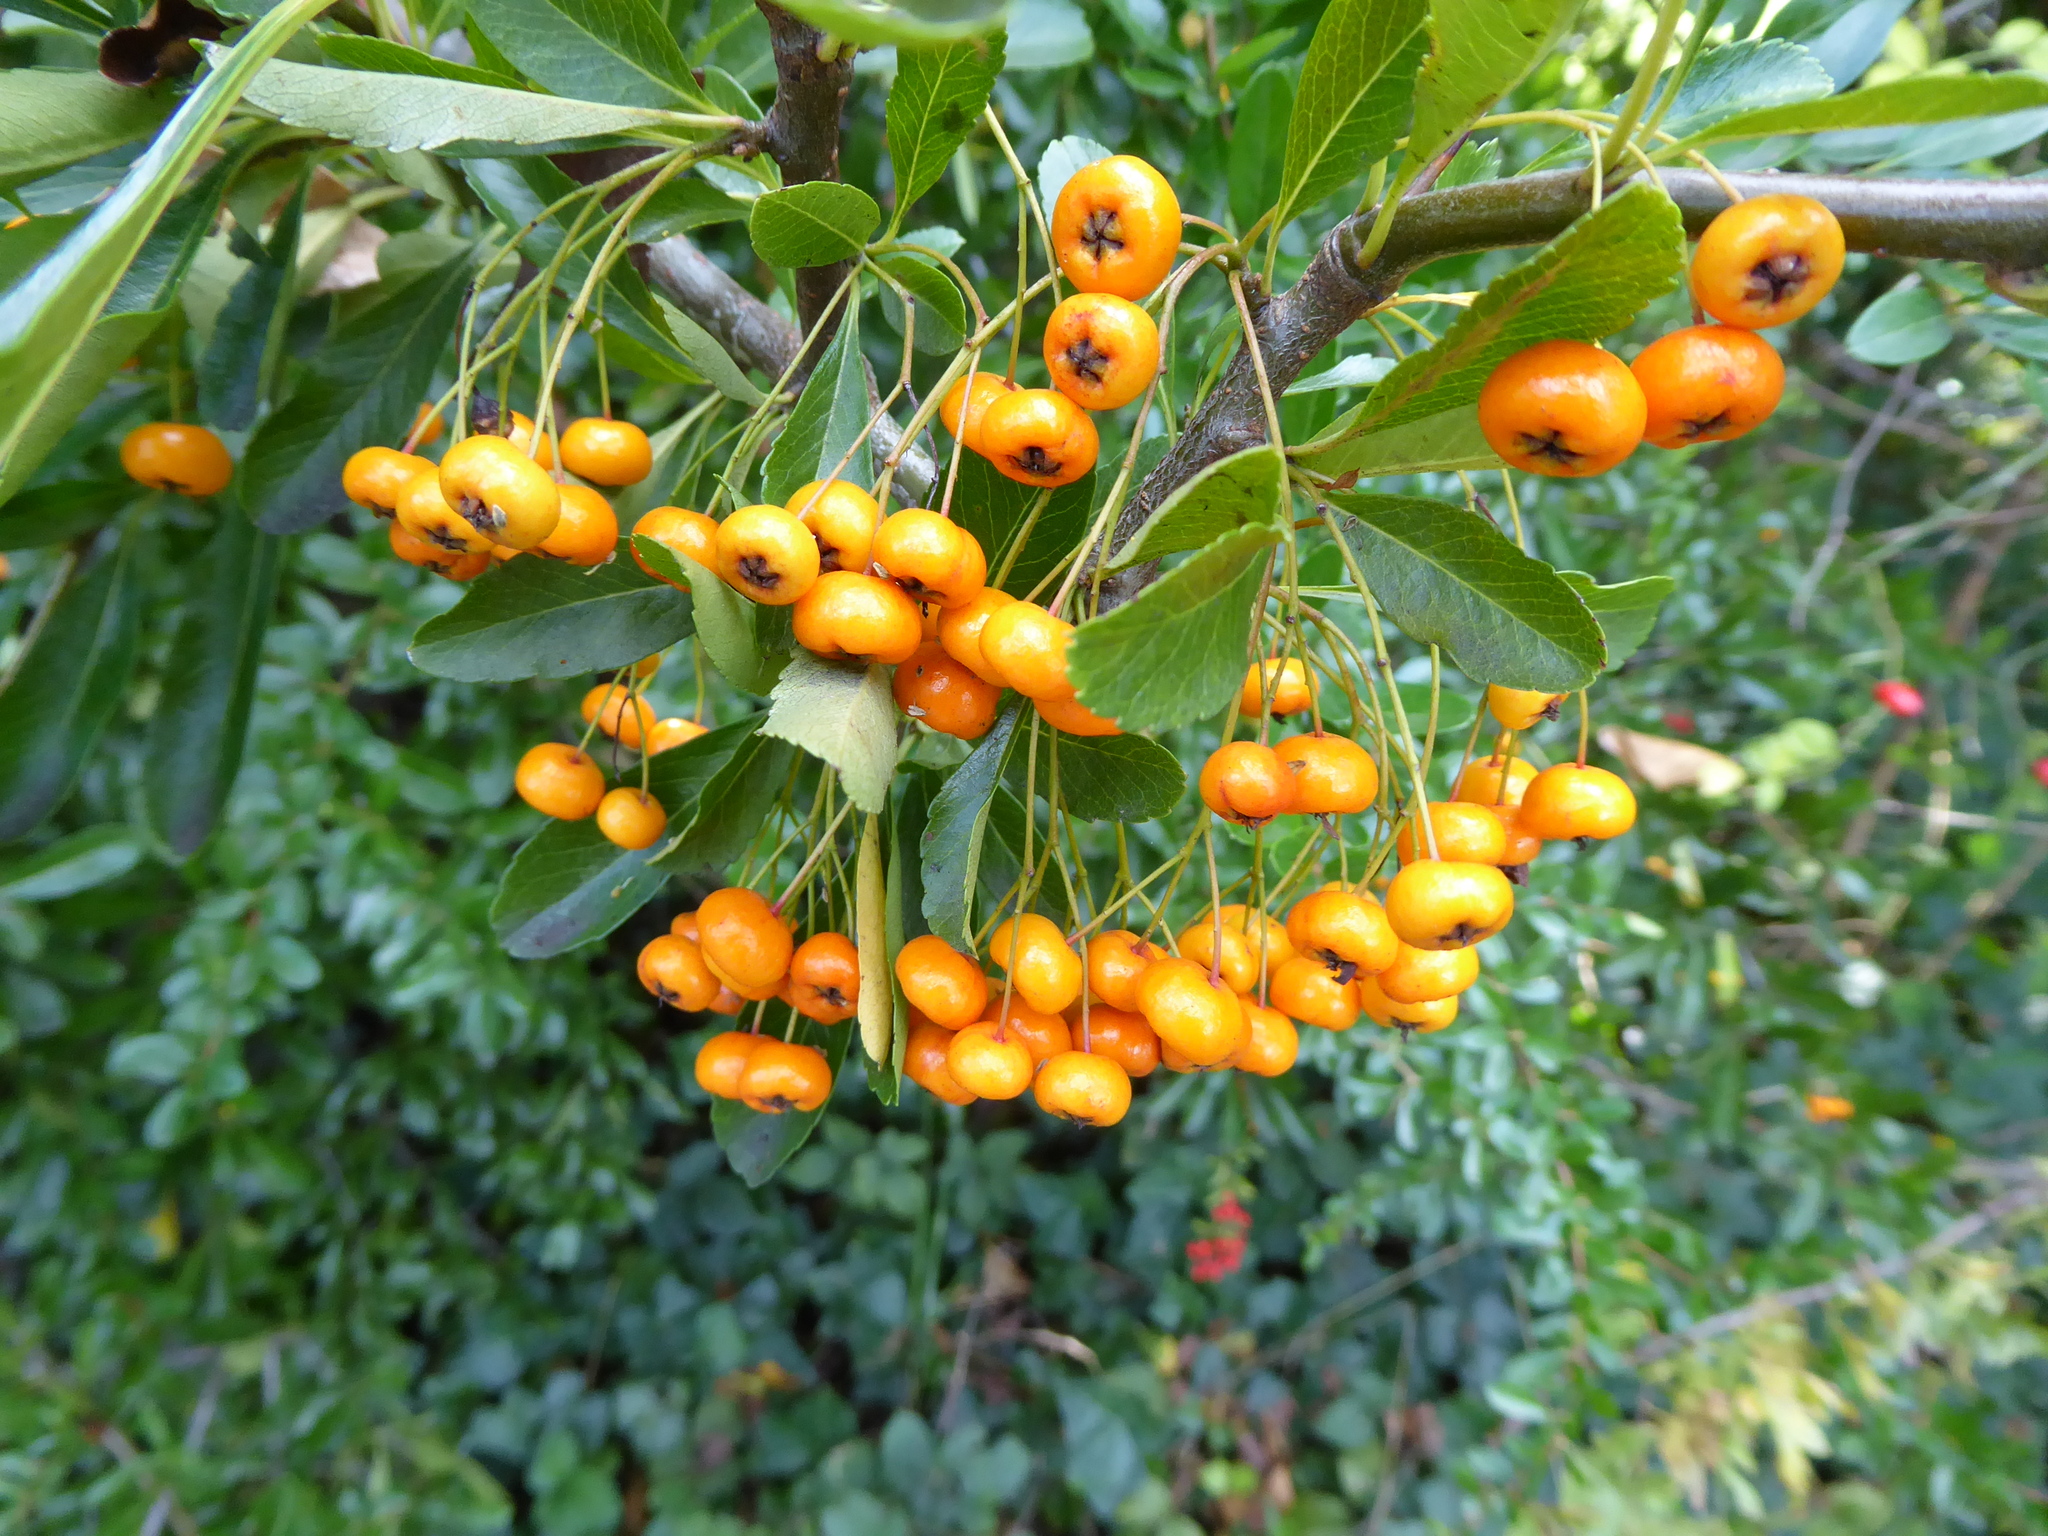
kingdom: Plantae
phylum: Tracheophyta
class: Magnoliopsida
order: Rosales
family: Rosaceae
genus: Pyracantha
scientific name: Pyracantha coccinea
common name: Firethorn
